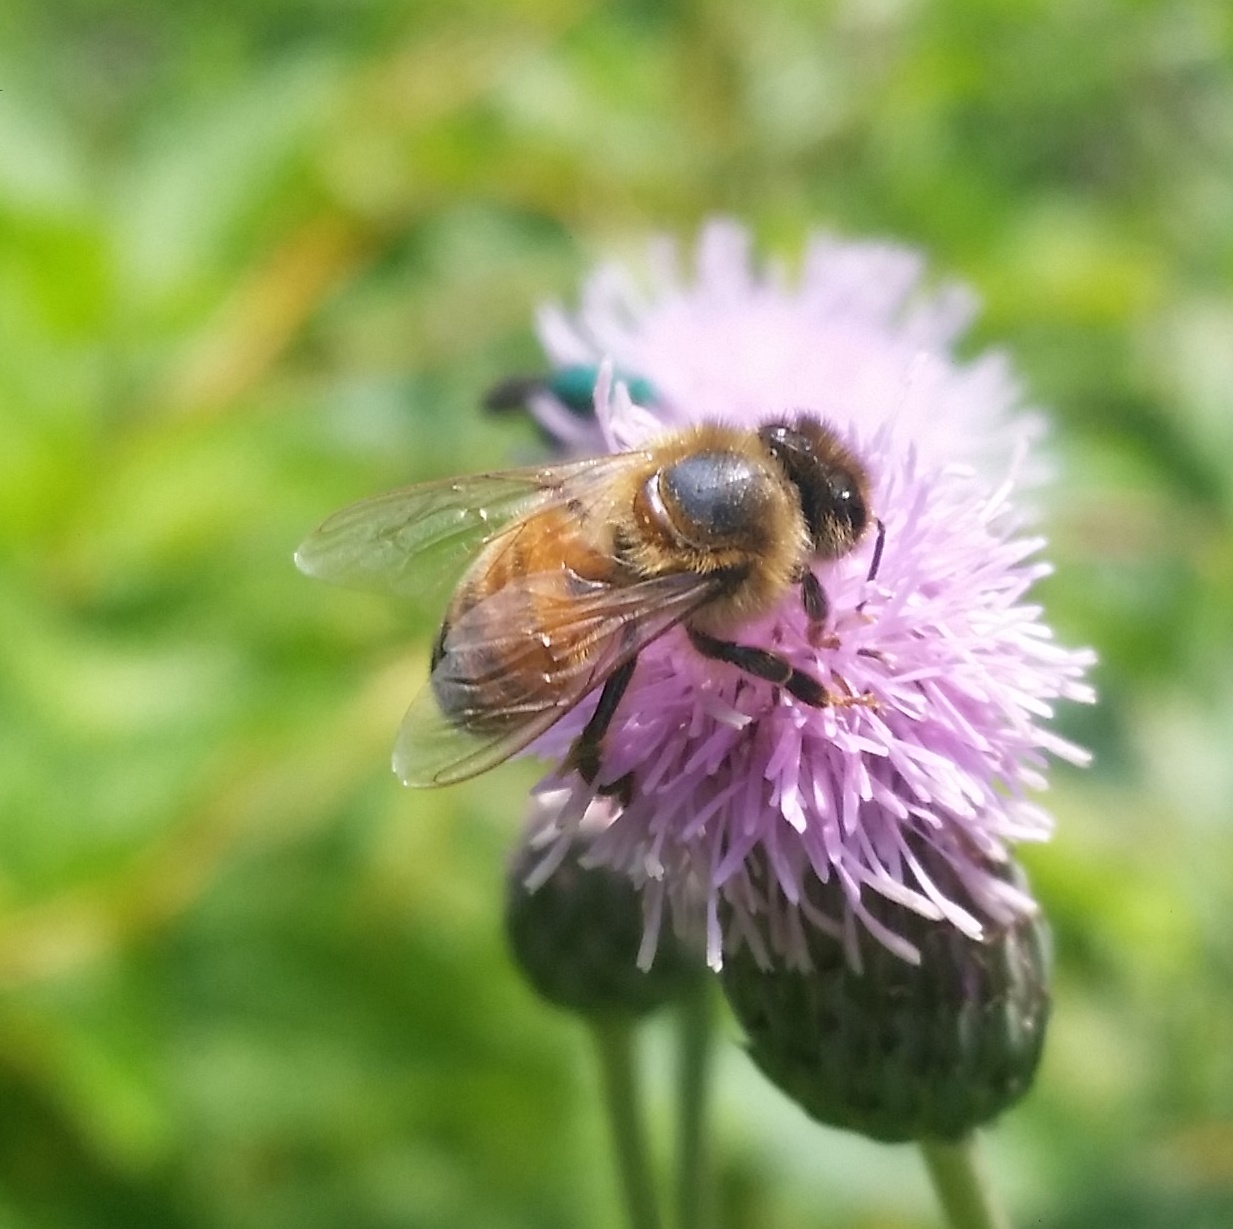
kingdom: Animalia
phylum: Arthropoda
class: Insecta
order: Hymenoptera
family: Apidae
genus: Apis
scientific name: Apis mellifera
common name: Honey bee
